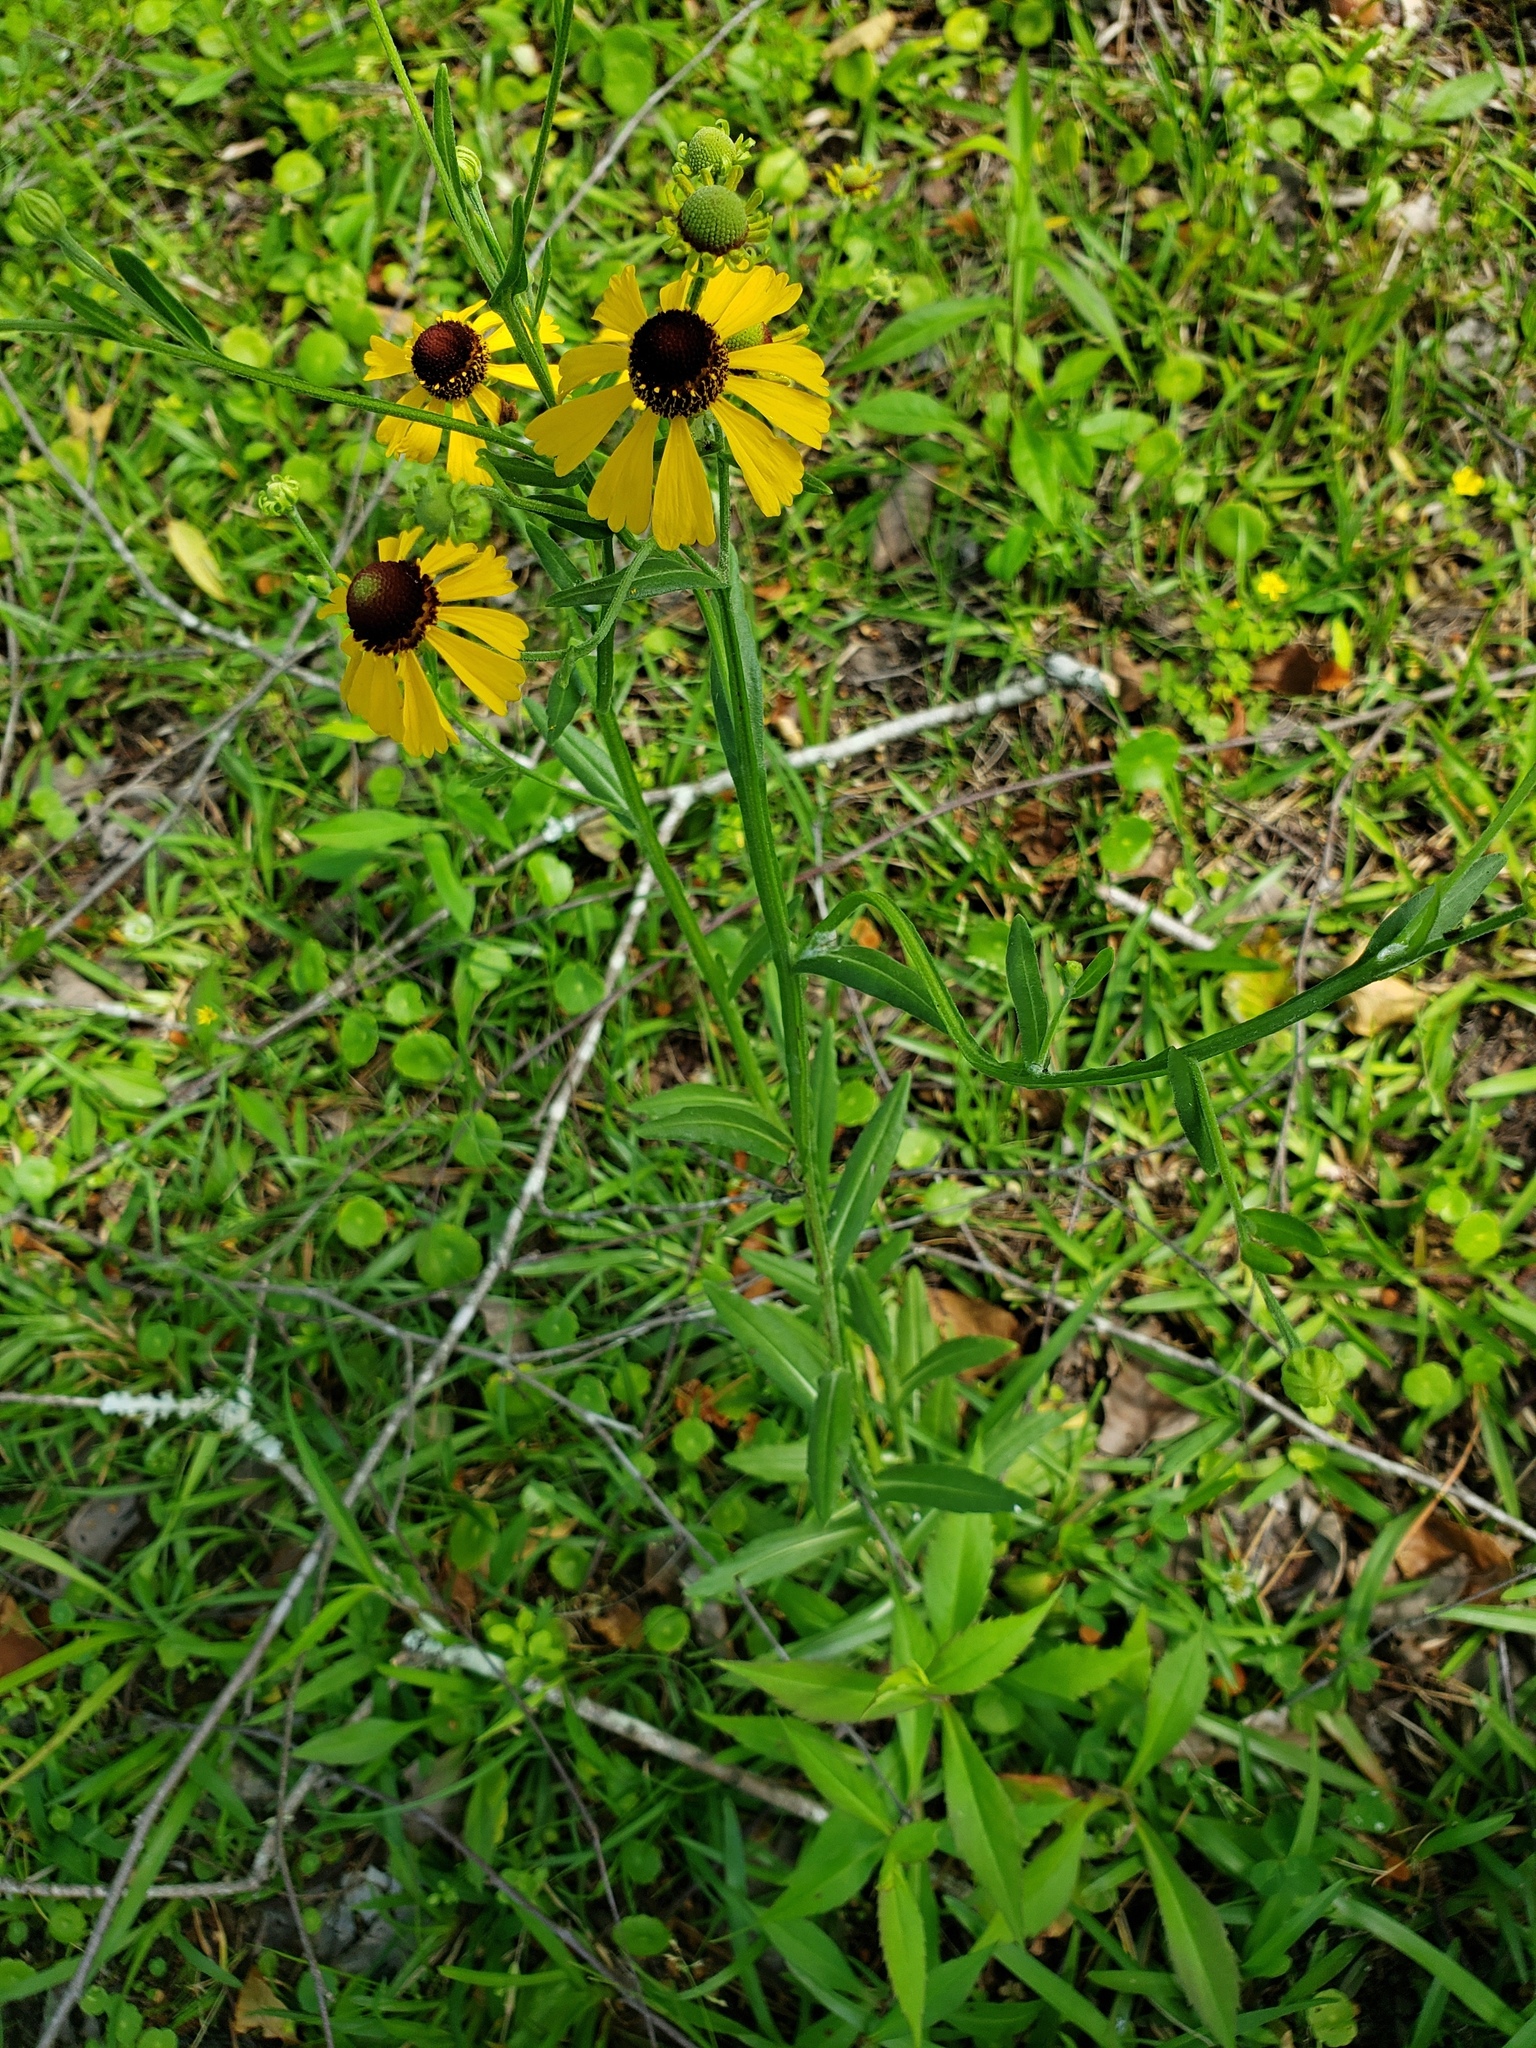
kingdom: Plantae
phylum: Tracheophyta
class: Magnoliopsida
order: Asterales
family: Asteraceae
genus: Helenium
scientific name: Helenium flexuosum
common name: Naked-flowered sneezeweed
